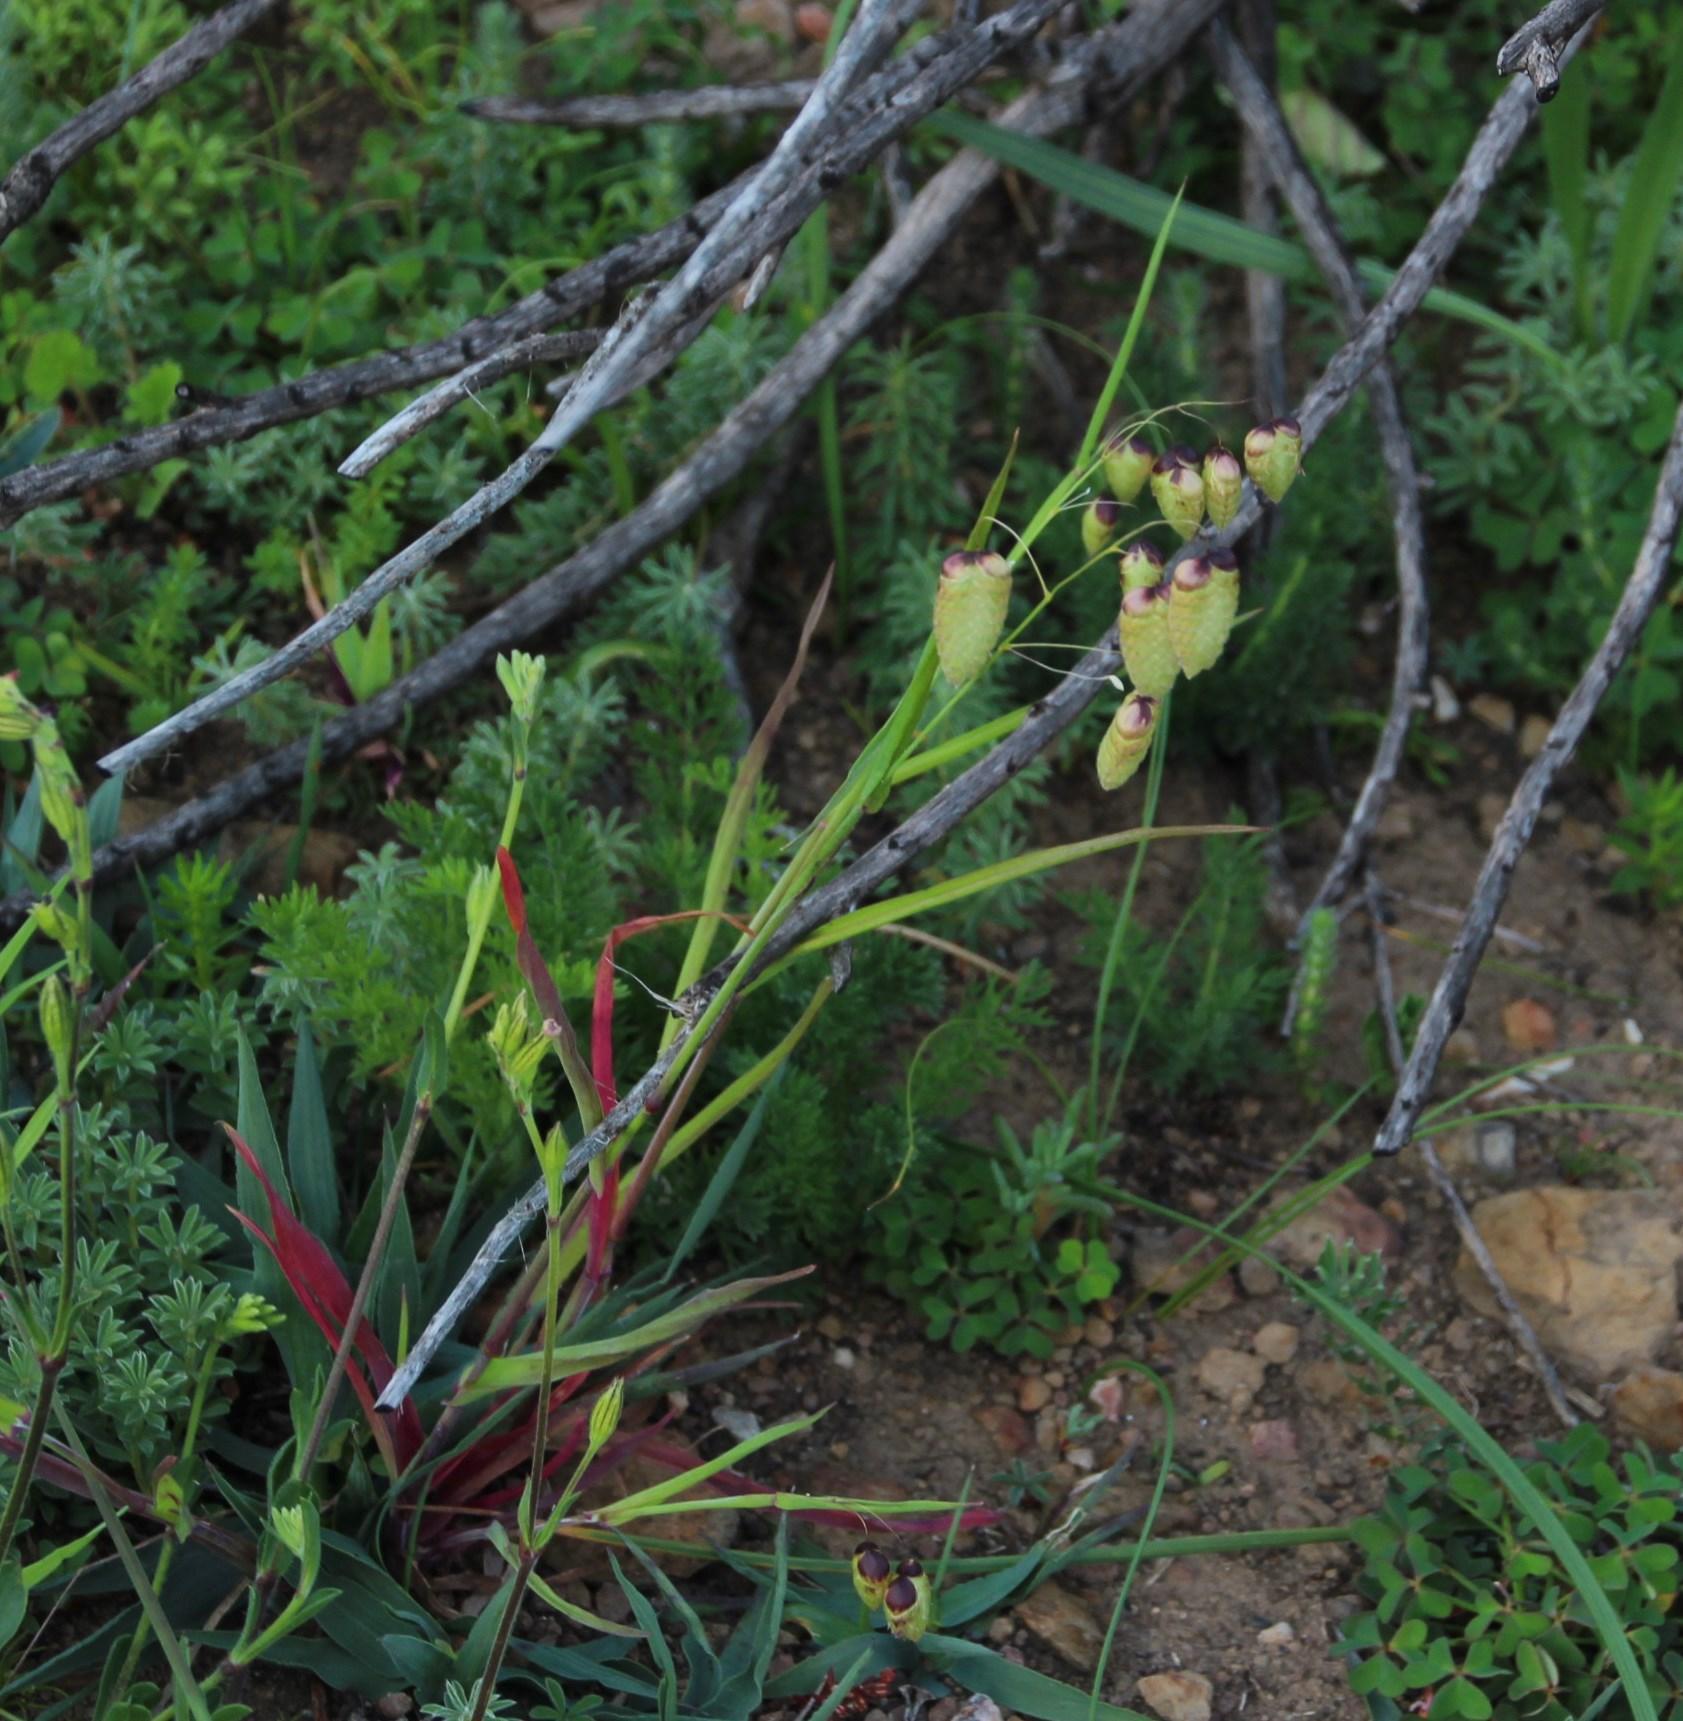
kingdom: Plantae
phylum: Tracheophyta
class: Liliopsida
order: Poales
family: Poaceae
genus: Briza
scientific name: Briza maxima
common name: Big quakinggrass
